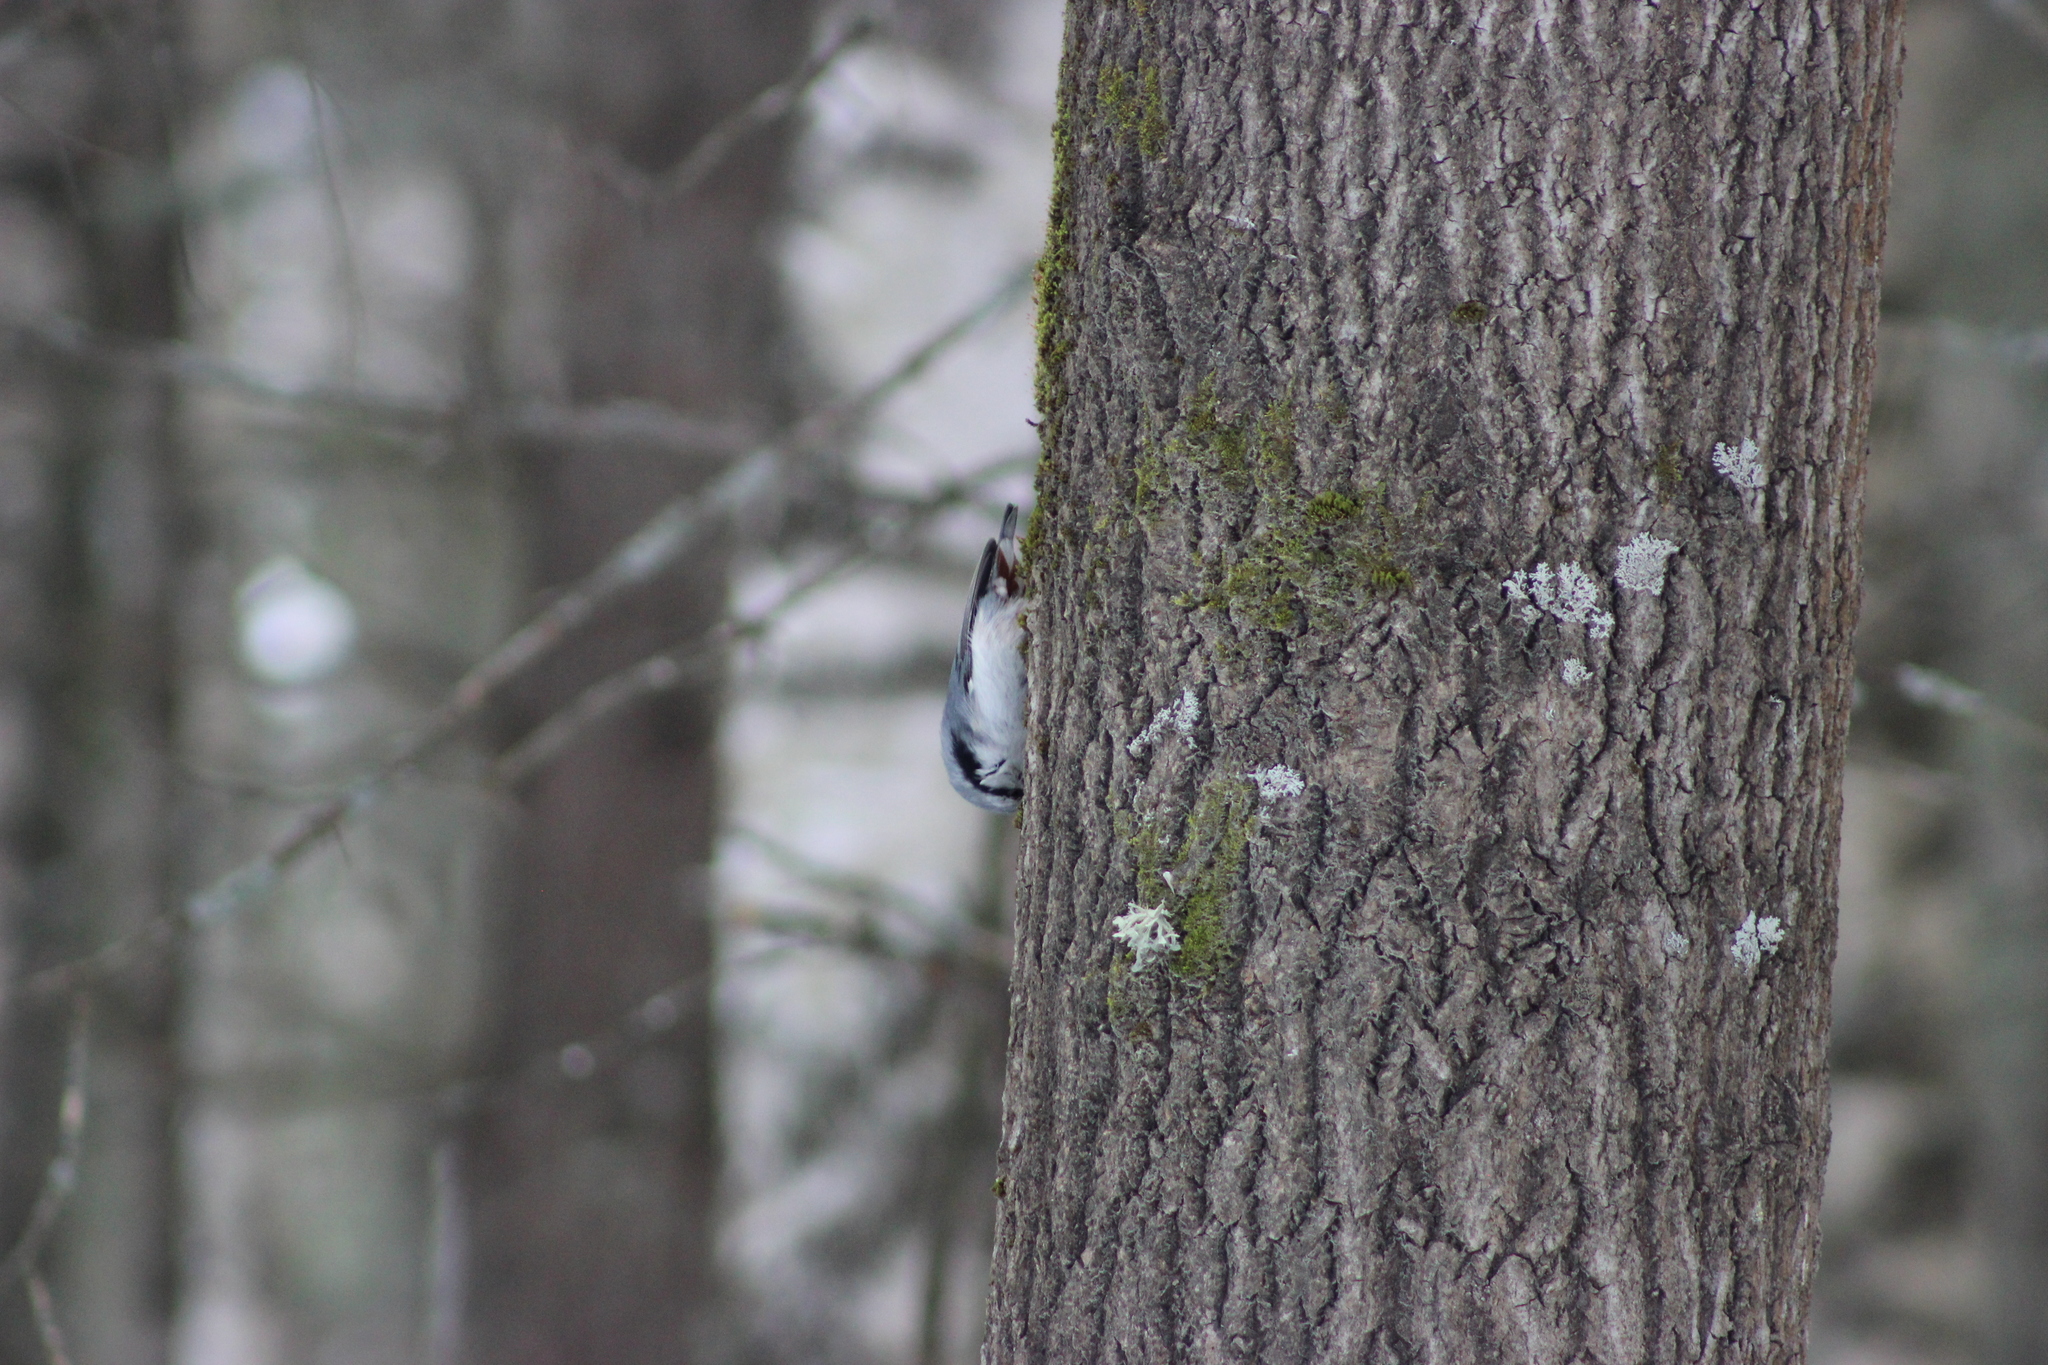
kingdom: Animalia
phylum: Chordata
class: Aves
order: Passeriformes
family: Sittidae
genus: Sitta
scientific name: Sitta europaea
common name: Eurasian nuthatch
